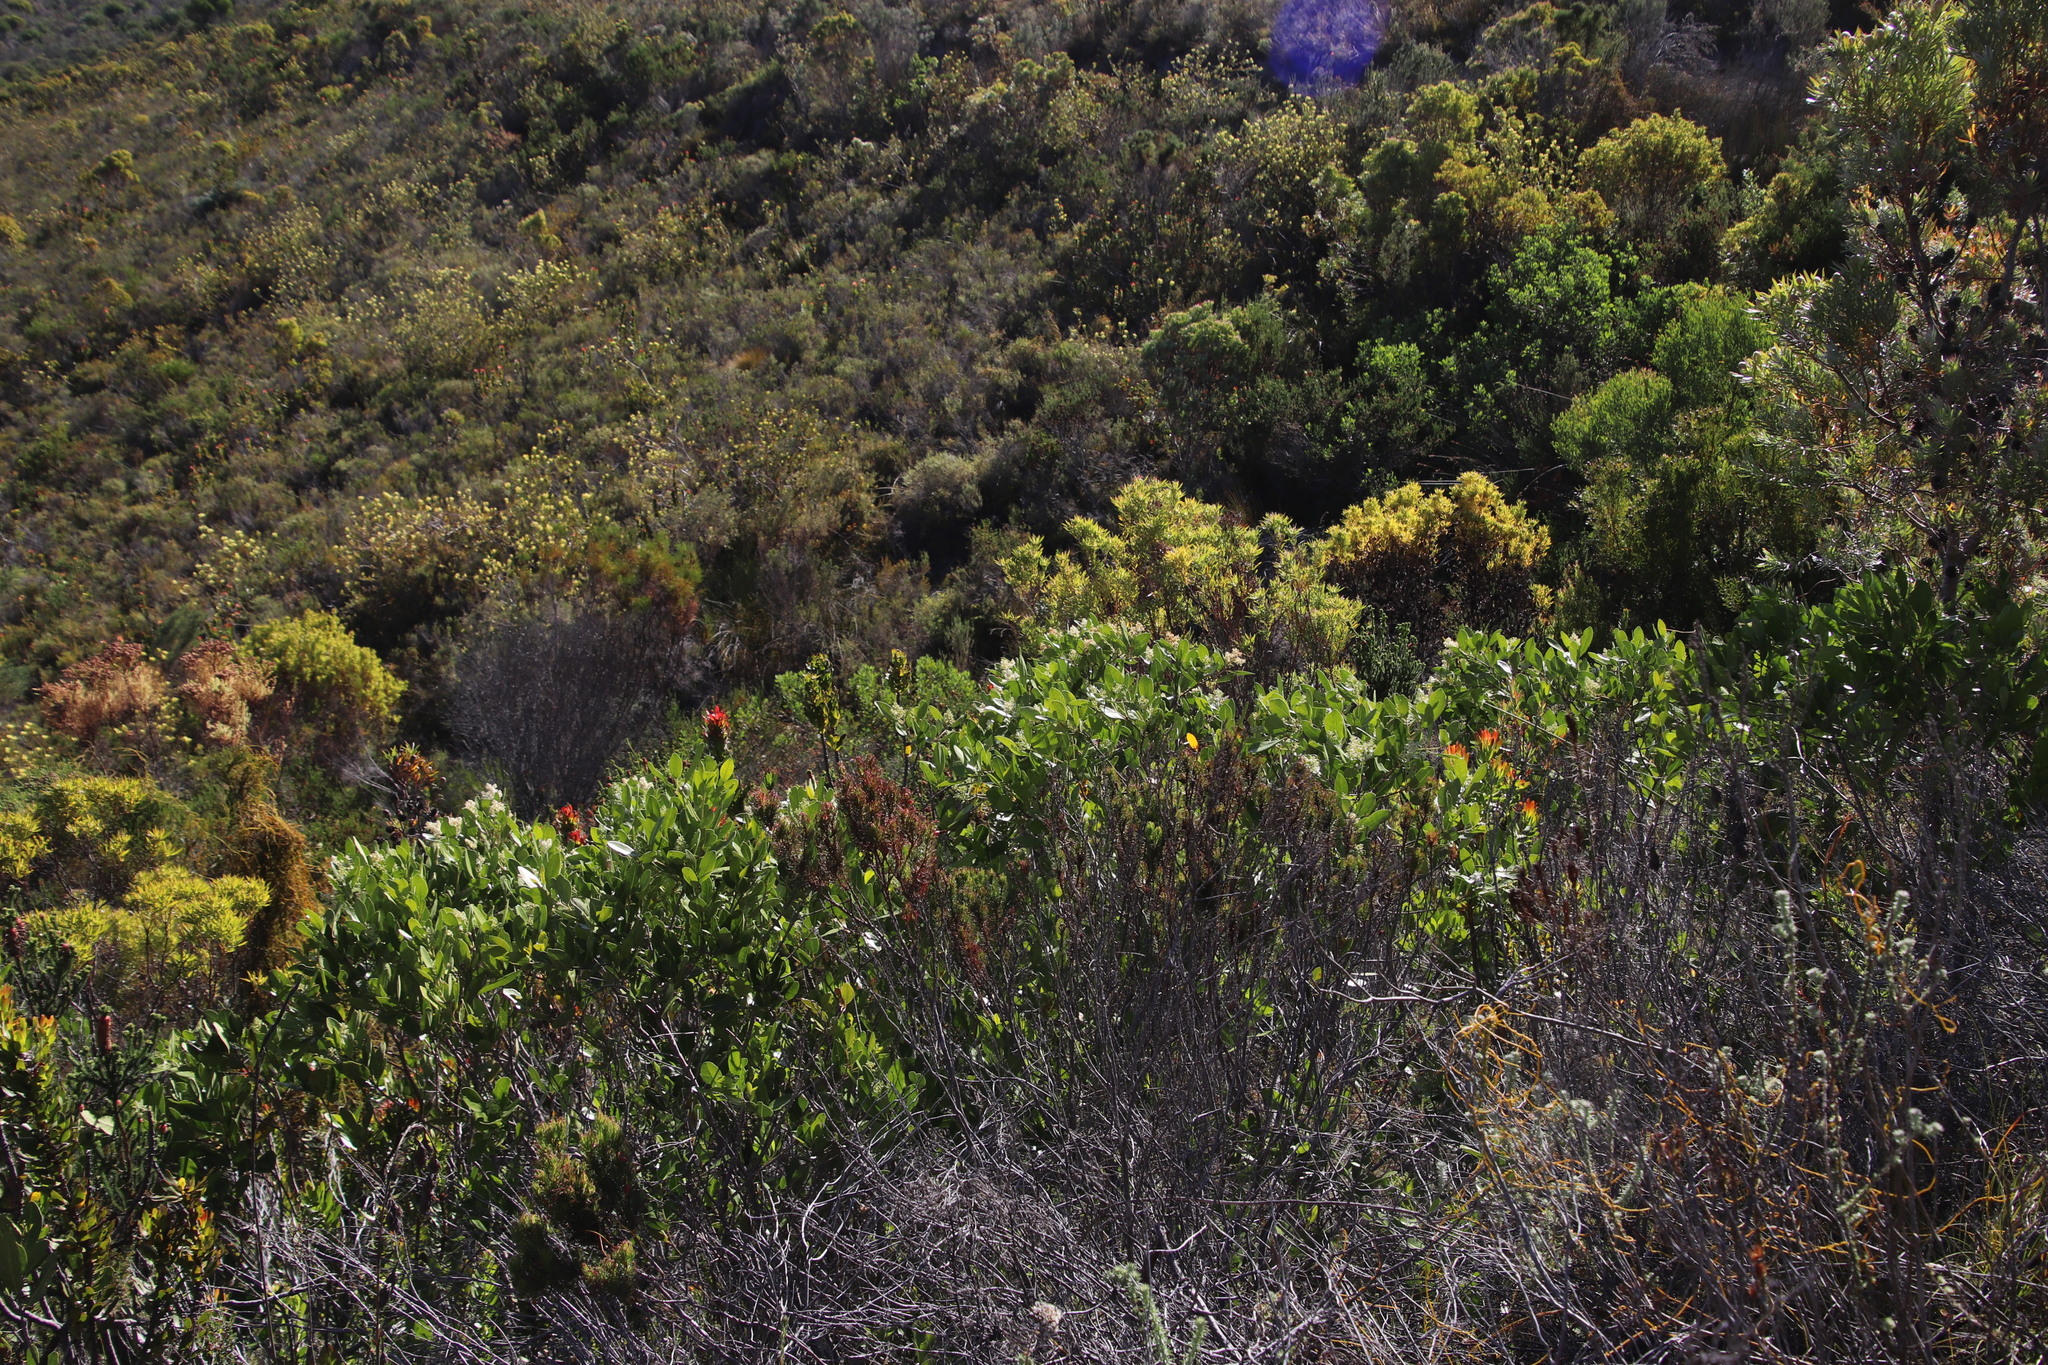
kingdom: Plantae
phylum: Tracheophyta
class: Magnoliopsida
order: Lamiales
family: Oleaceae
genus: Olea
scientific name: Olea capensis
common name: Black ironwood
